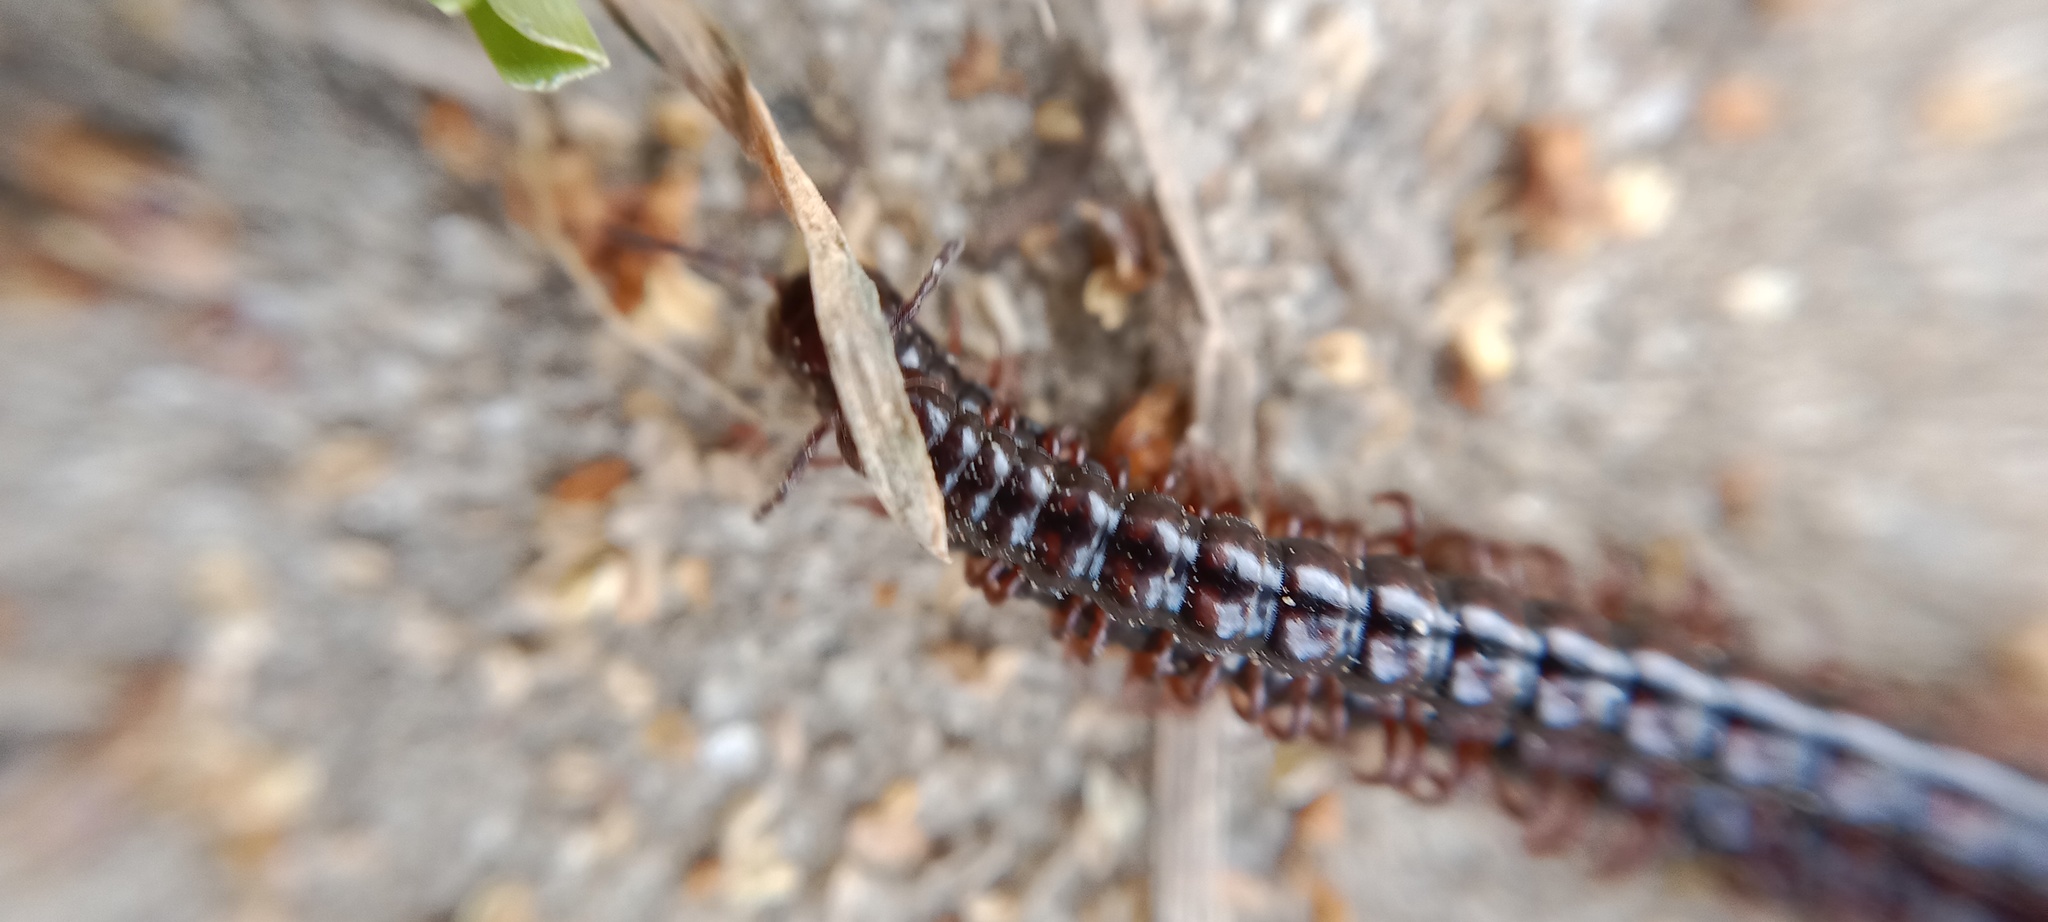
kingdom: Animalia
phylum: Arthropoda
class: Diplopoda
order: Polydesmida
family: Paradoxosomatidae
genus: Strongylosoma
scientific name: Strongylosoma stigmatosus
